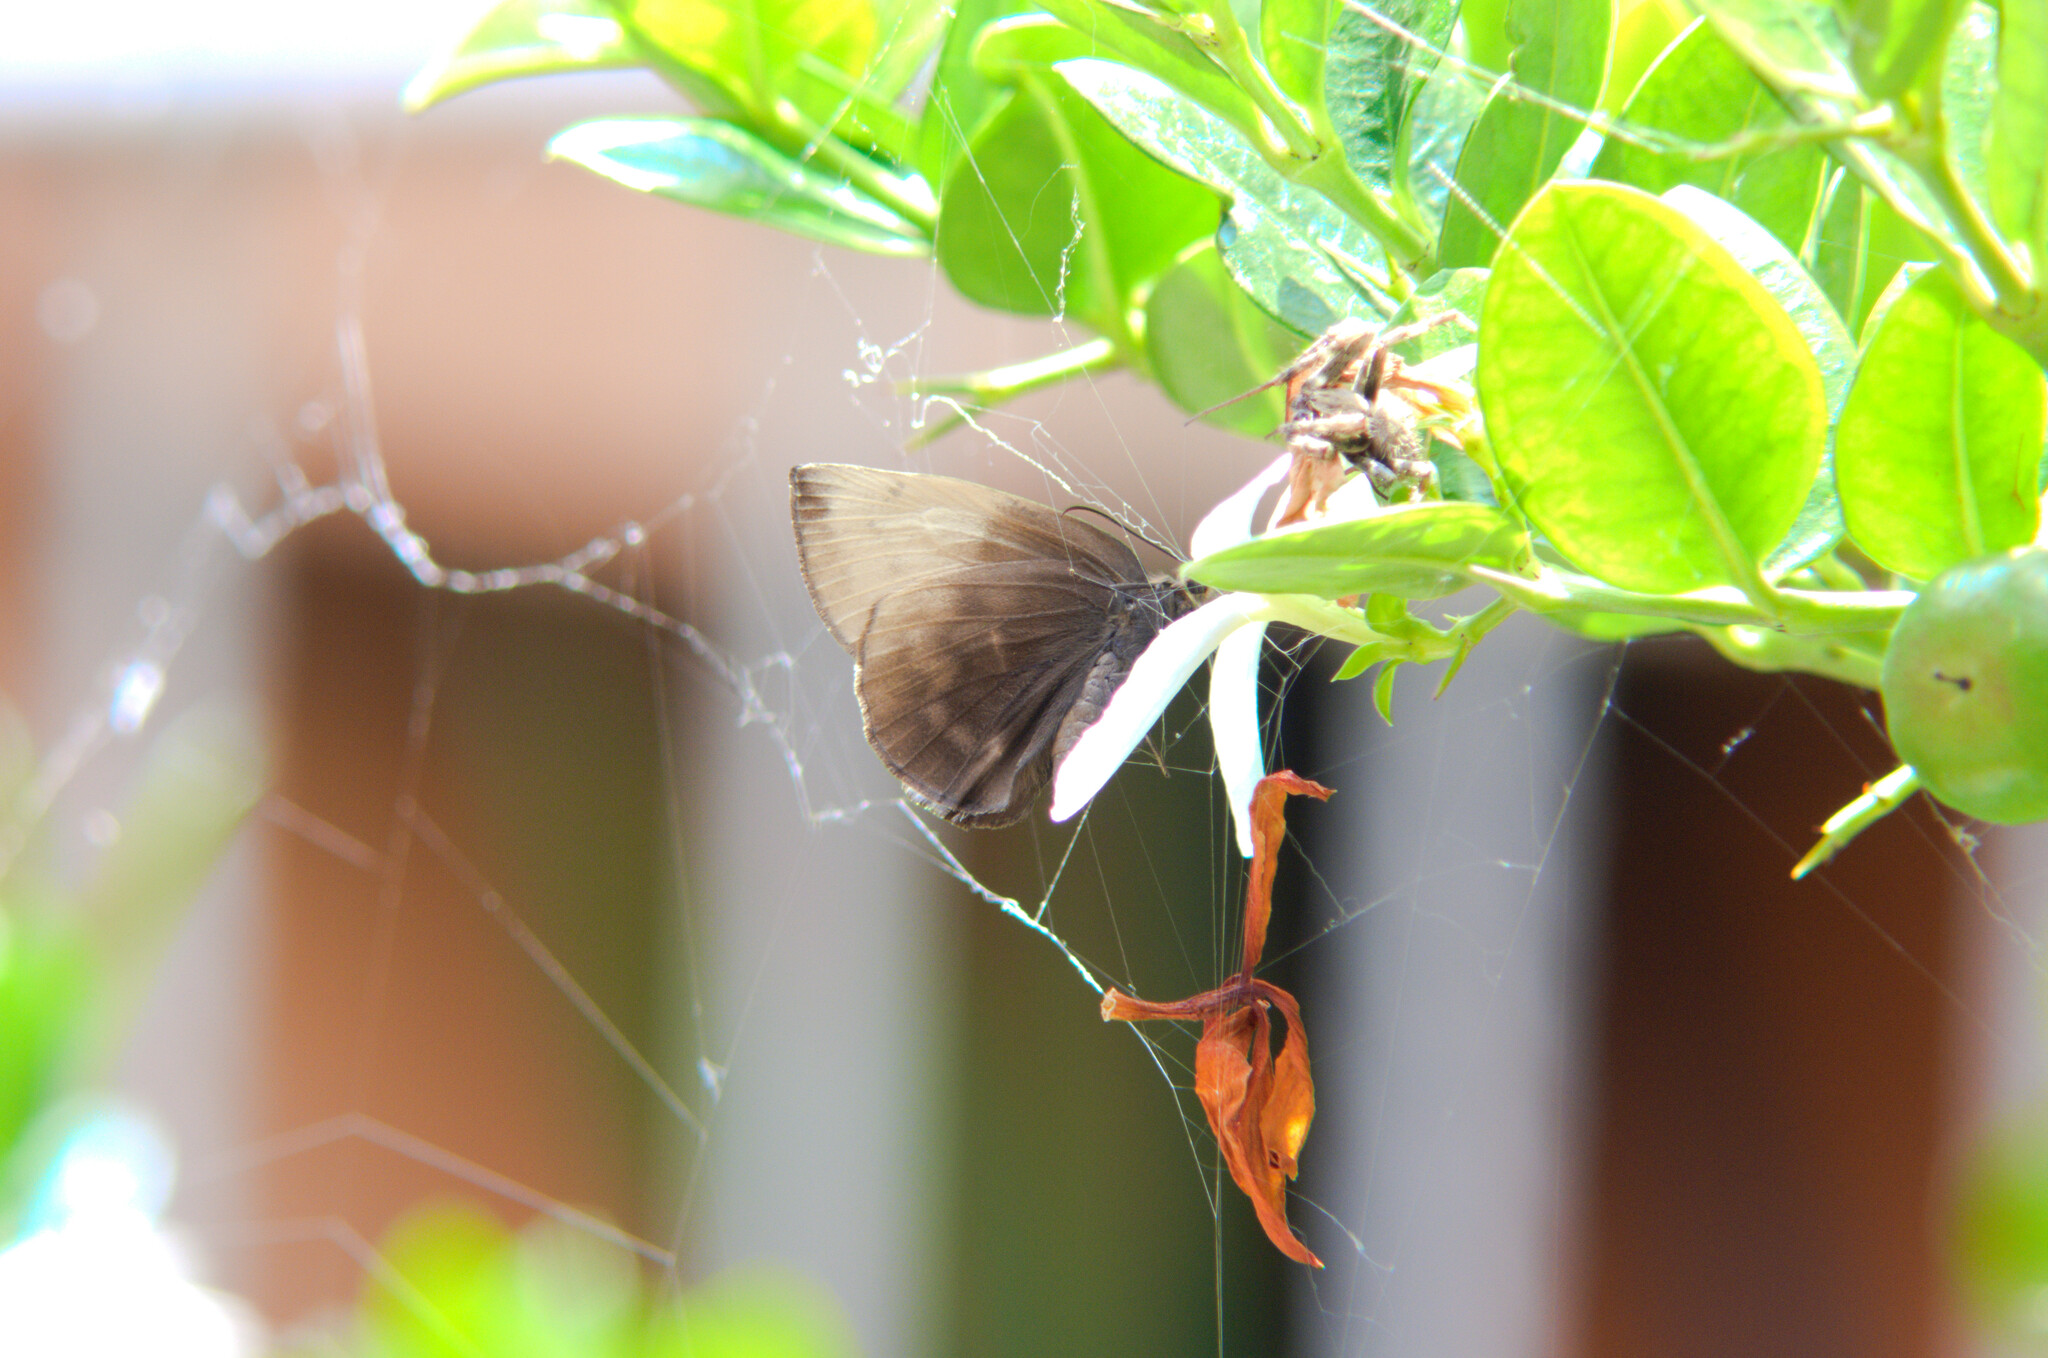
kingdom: Animalia
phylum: Arthropoda
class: Insecta
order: Lepidoptera
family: Hesperiidae
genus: Achlyodes
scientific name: Achlyodes pallida
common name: Pale sicklewing
